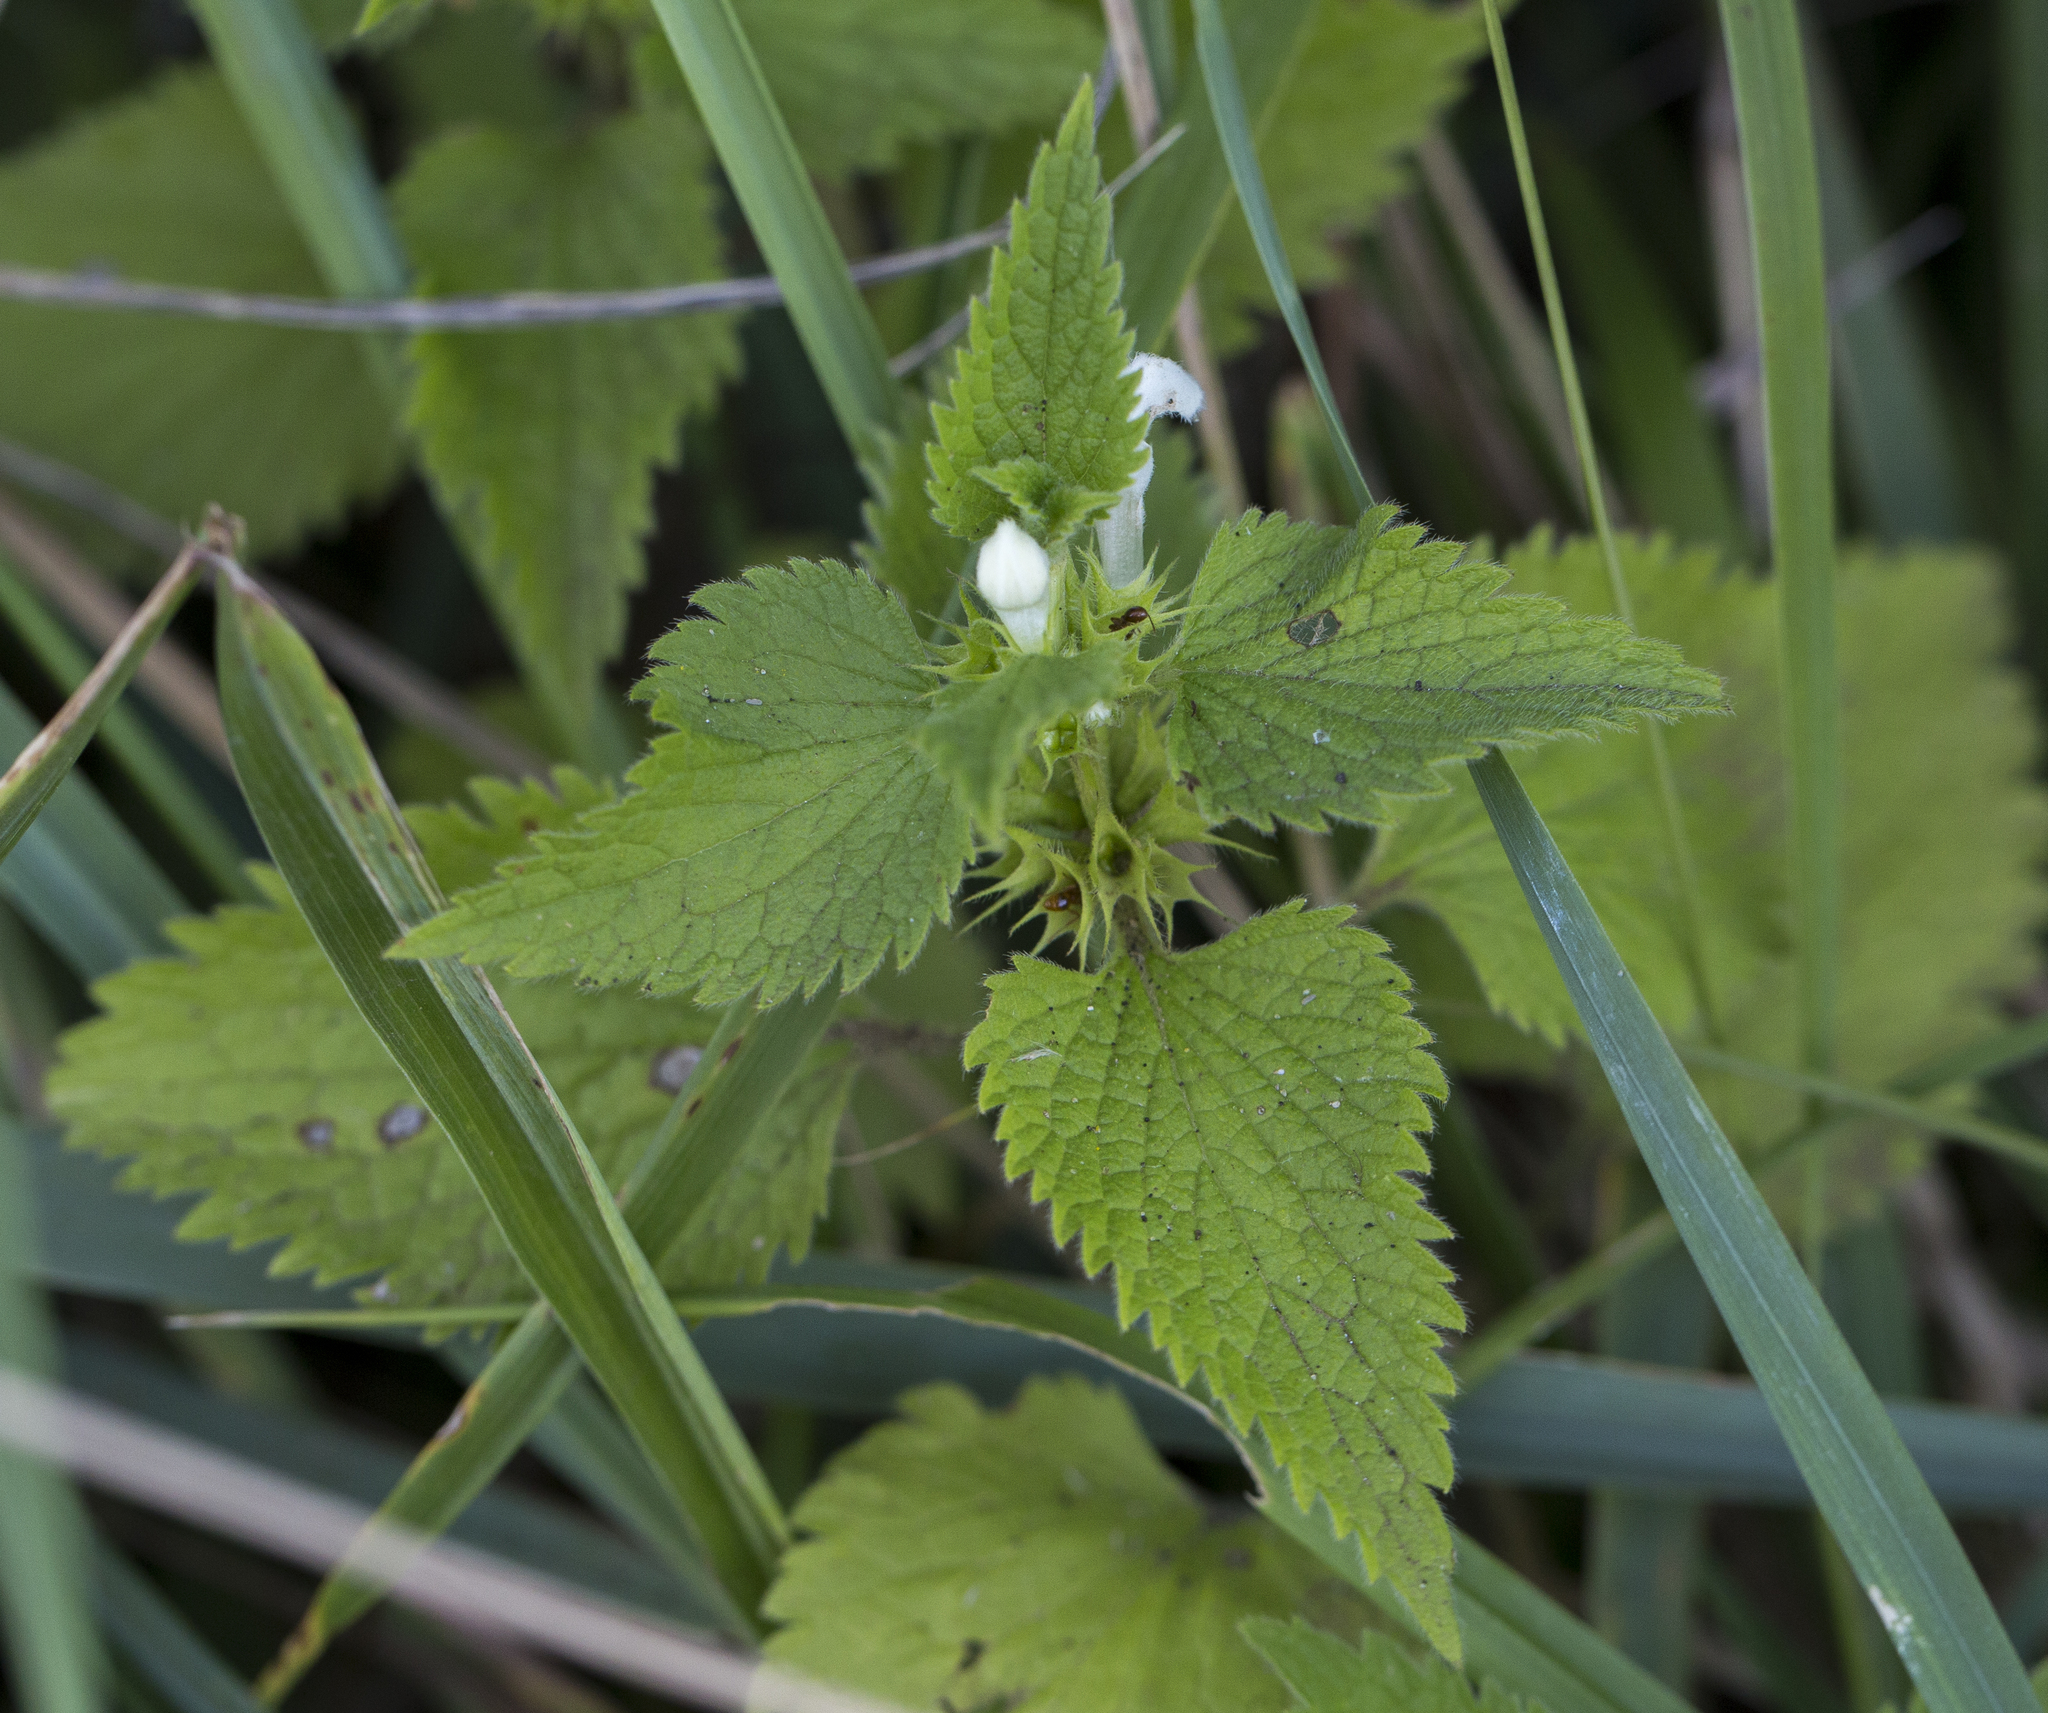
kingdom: Plantae
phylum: Tracheophyta
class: Magnoliopsida
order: Lamiales
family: Lamiaceae
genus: Lamium
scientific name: Lamium album
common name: White dead-nettle
